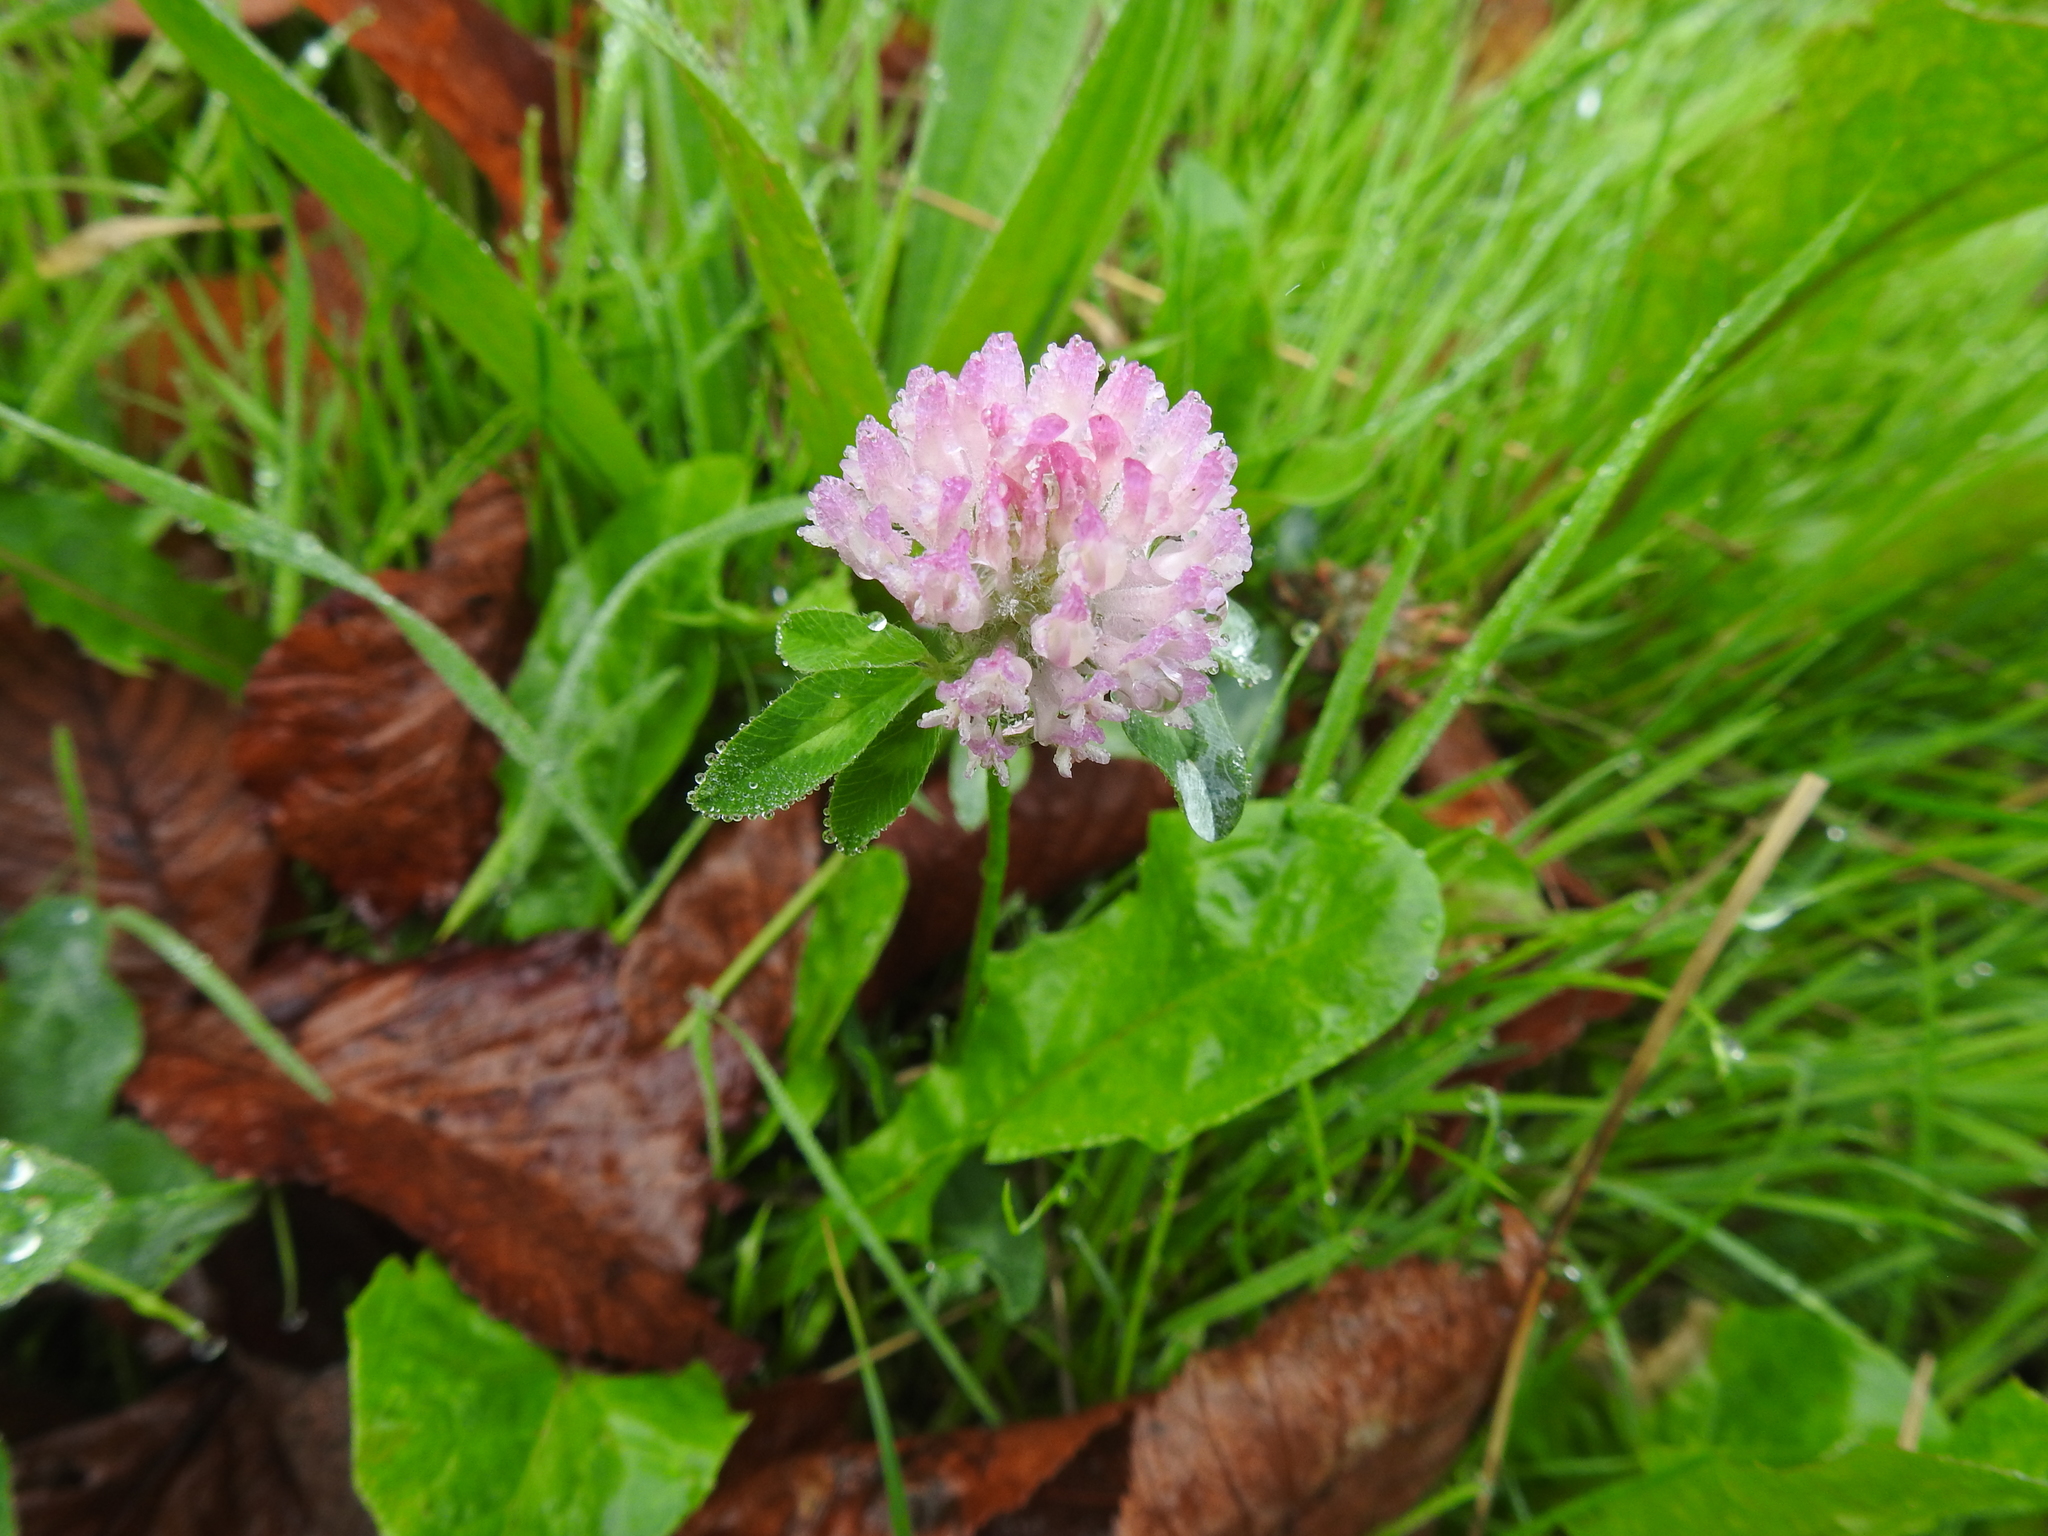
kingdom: Plantae
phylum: Tracheophyta
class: Magnoliopsida
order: Fabales
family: Fabaceae
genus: Trifolium
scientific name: Trifolium pratense
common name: Red clover
